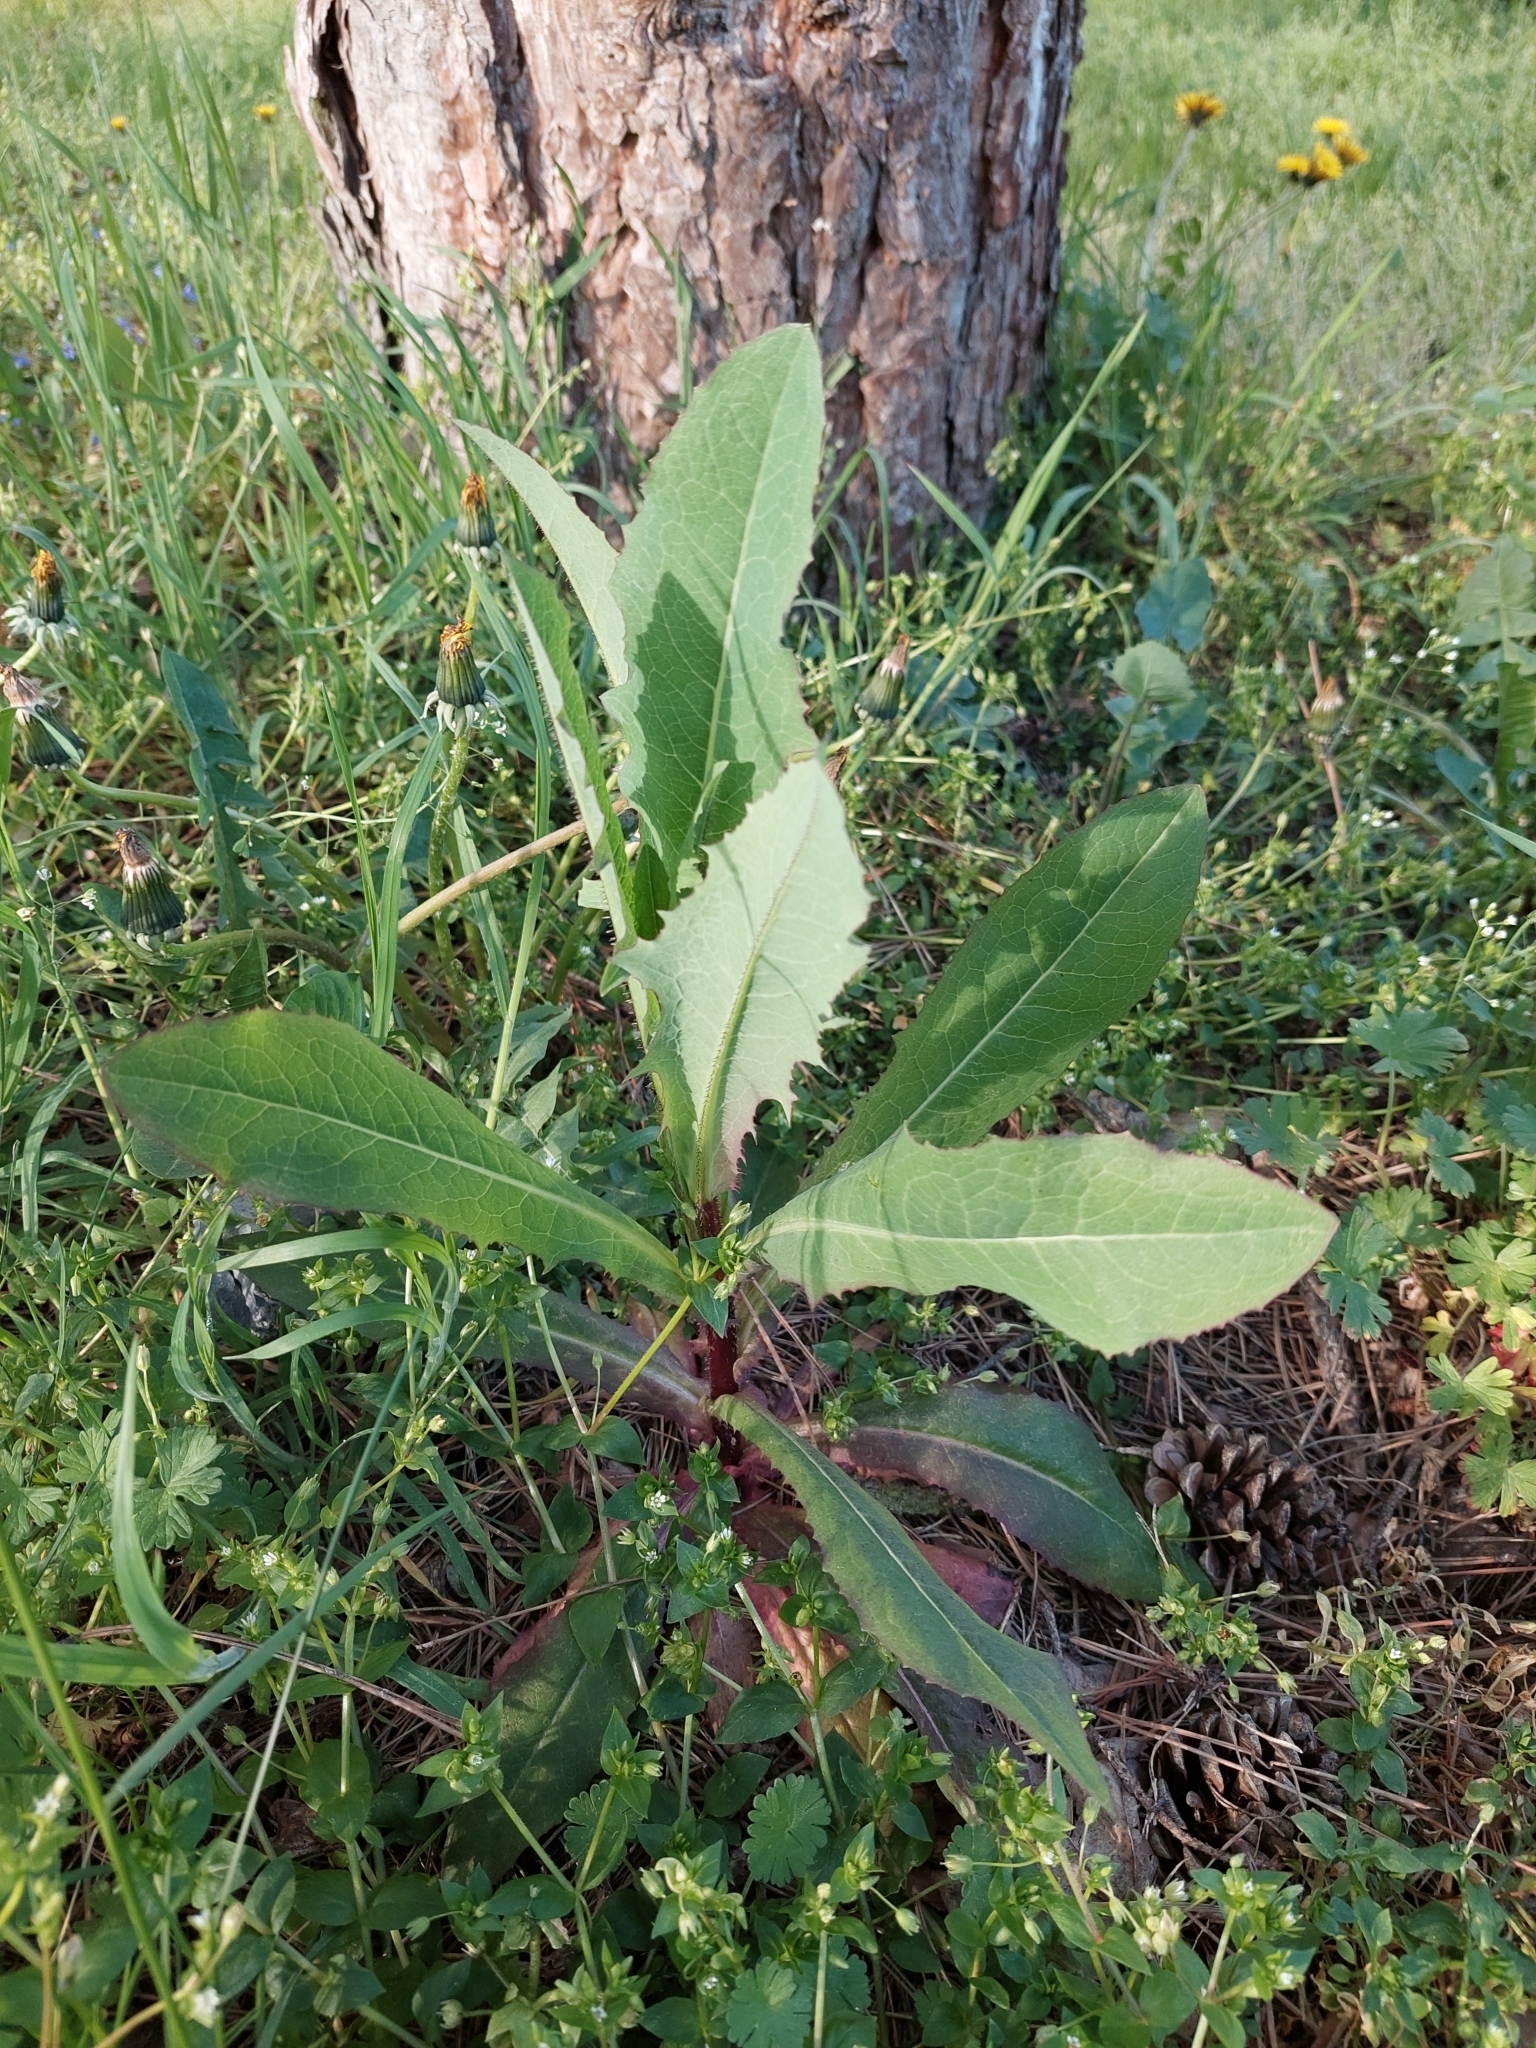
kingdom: Plantae
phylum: Tracheophyta
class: Magnoliopsida
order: Asterales
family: Asteraceae
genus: Lactuca
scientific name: Lactuca serriola
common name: Prickly lettuce
